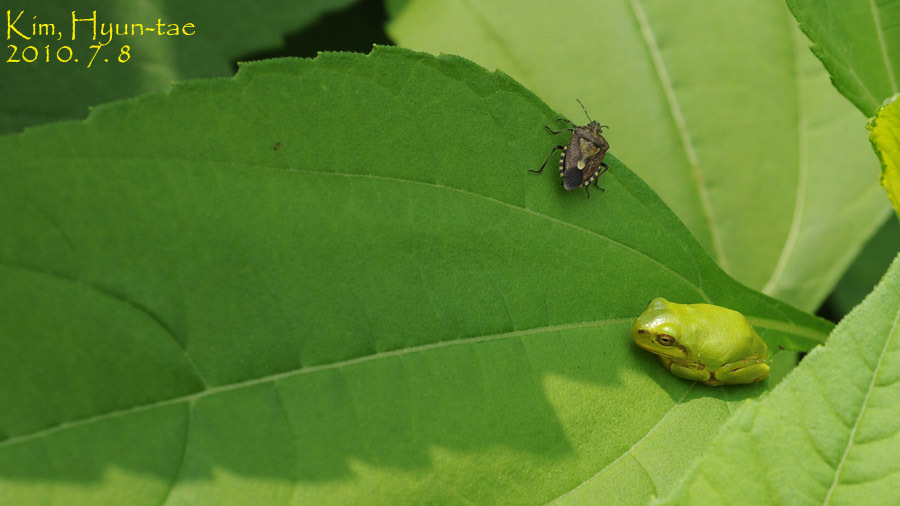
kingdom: Animalia
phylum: Chordata
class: Amphibia
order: Anura
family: Hylidae
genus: Dryophytes
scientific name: Dryophytes japonicus
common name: Japanese treefrog
